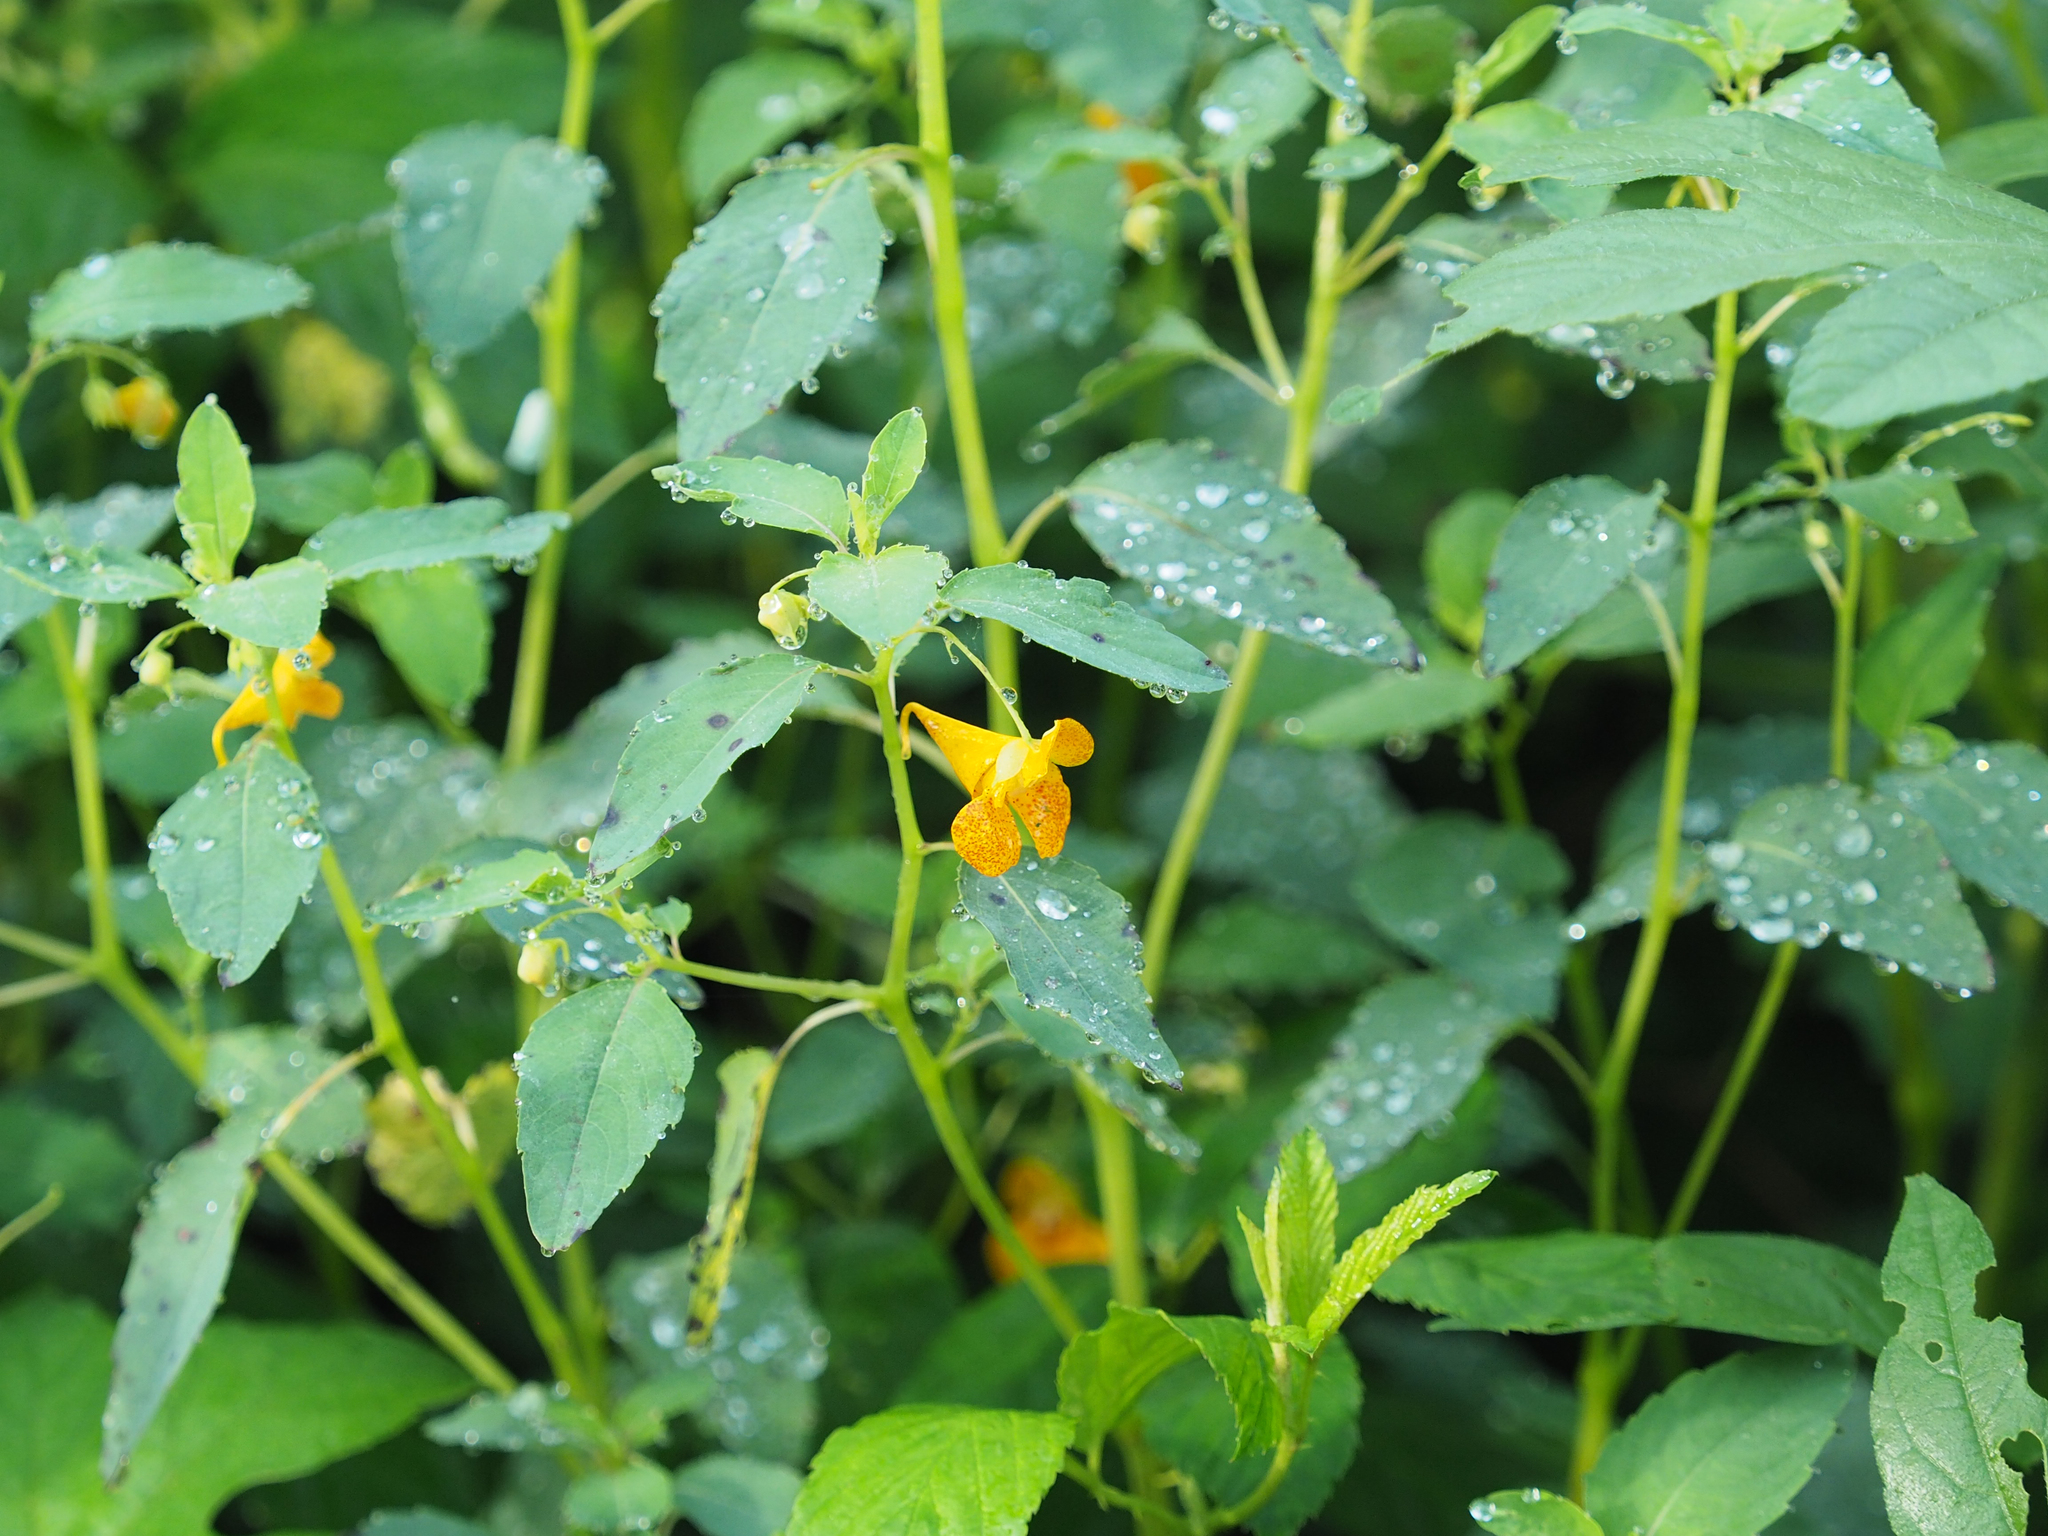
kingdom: Plantae
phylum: Tracheophyta
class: Magnoliopsida
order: Ericales
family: Balsaminaceae
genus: Impatiens
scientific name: Impatiens capensis
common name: Orange balsam
